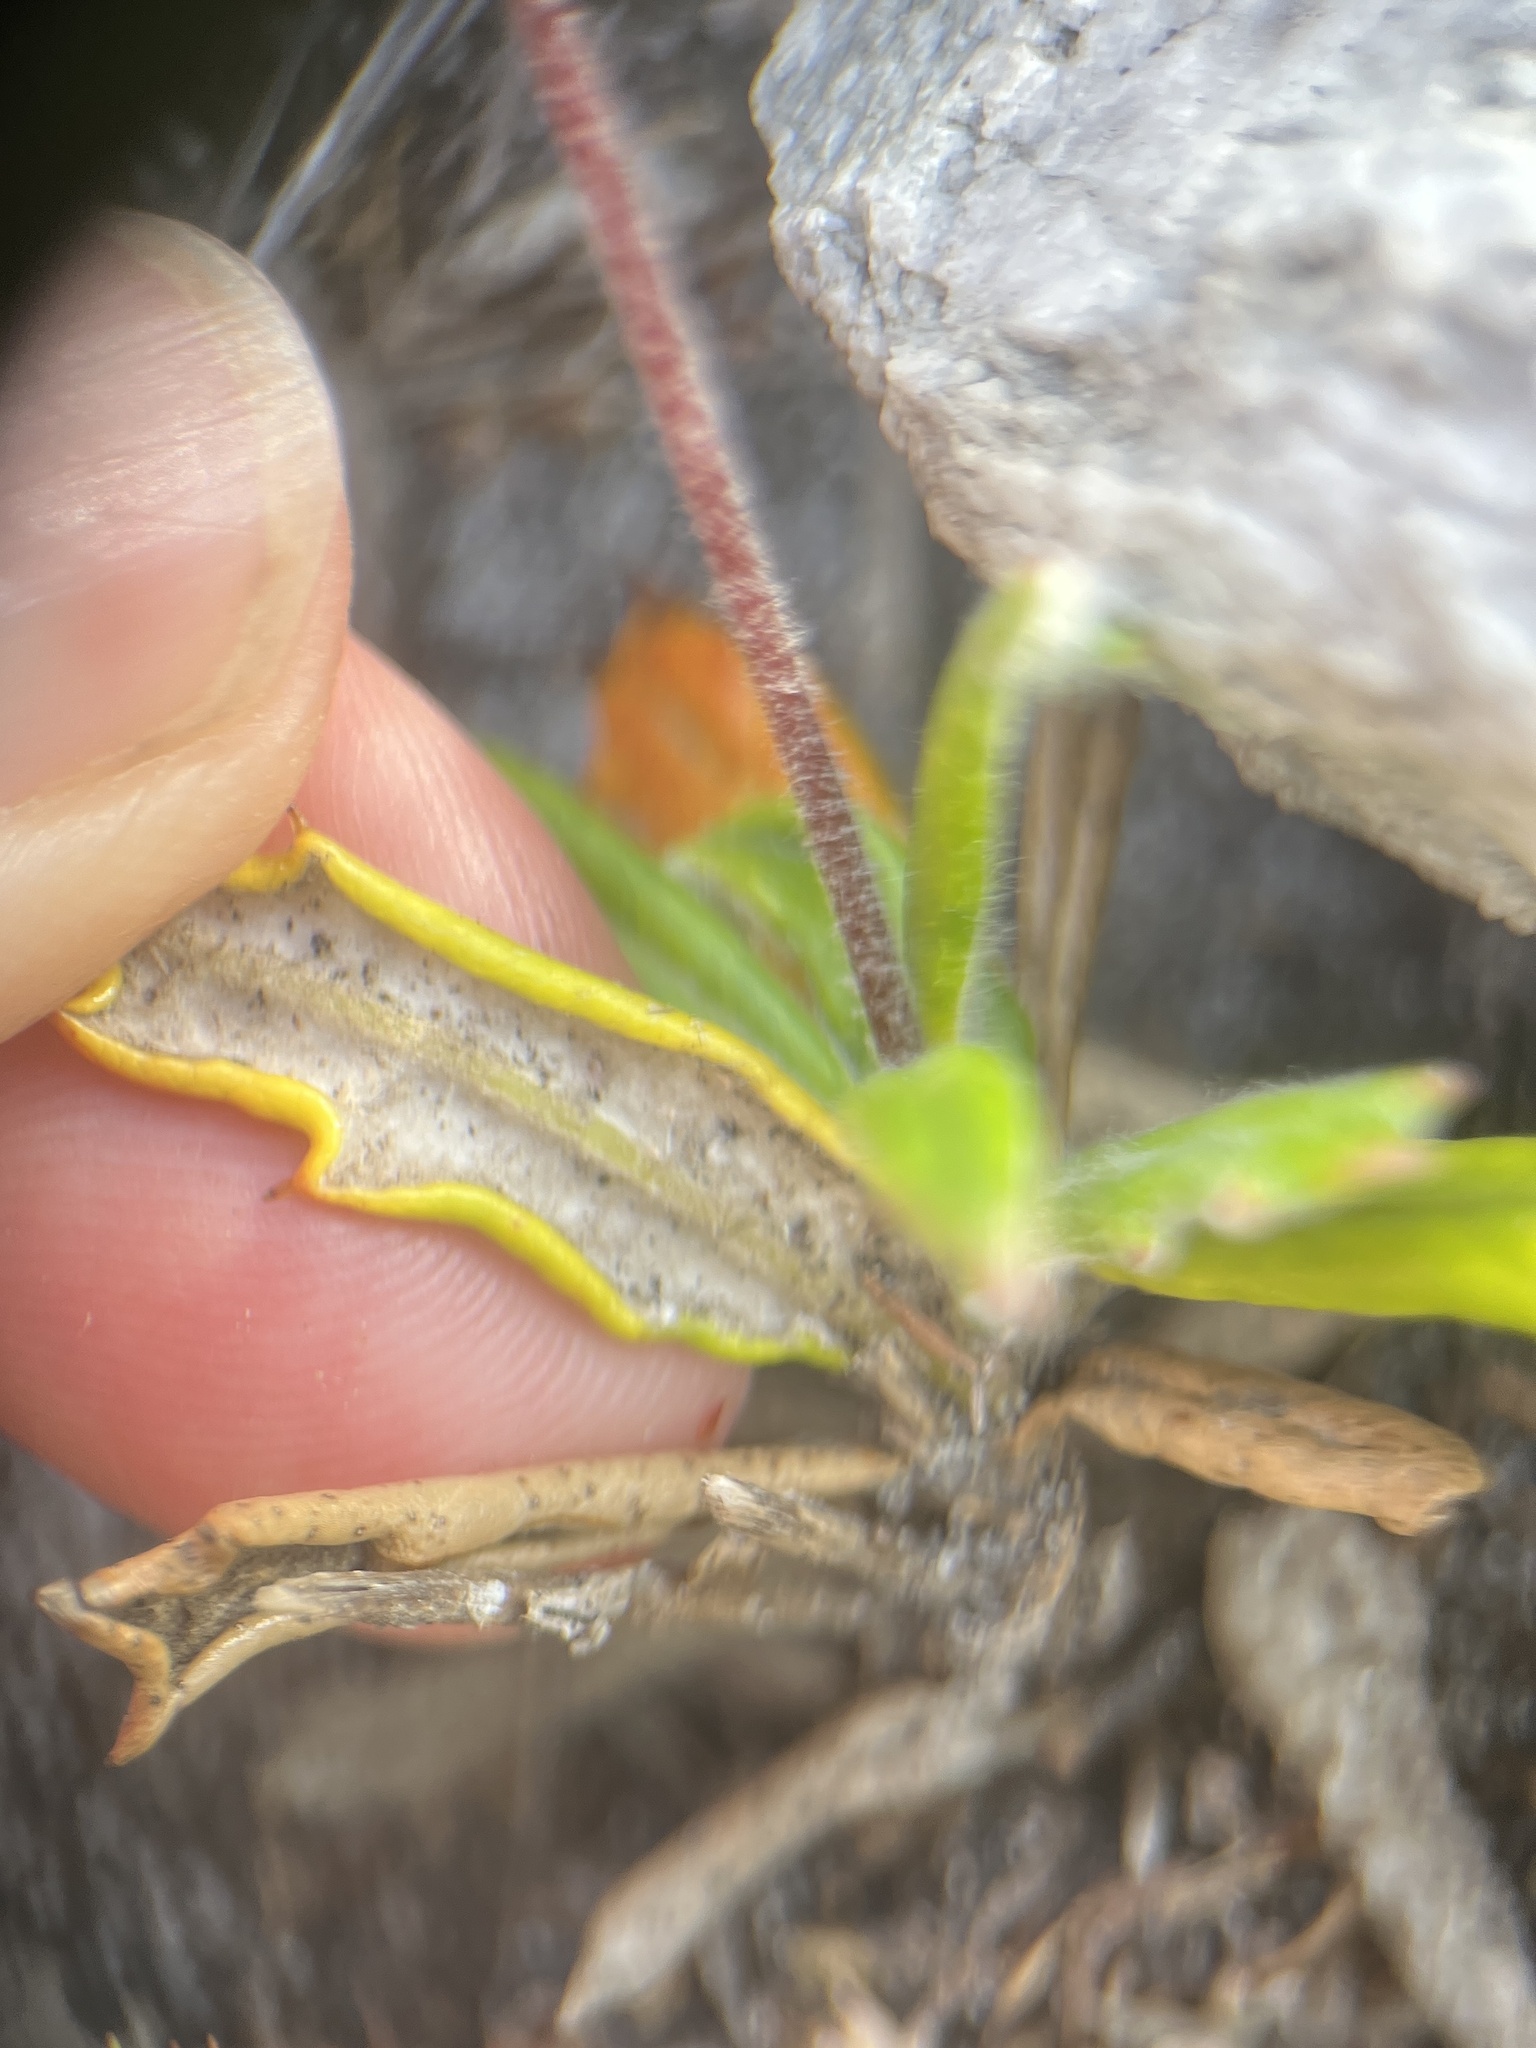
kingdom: Plantae
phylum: Tracheophyta
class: Magnoliopsida
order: Apiales
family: Apiaceae
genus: Hermas
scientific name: Hermas quinquedentata
